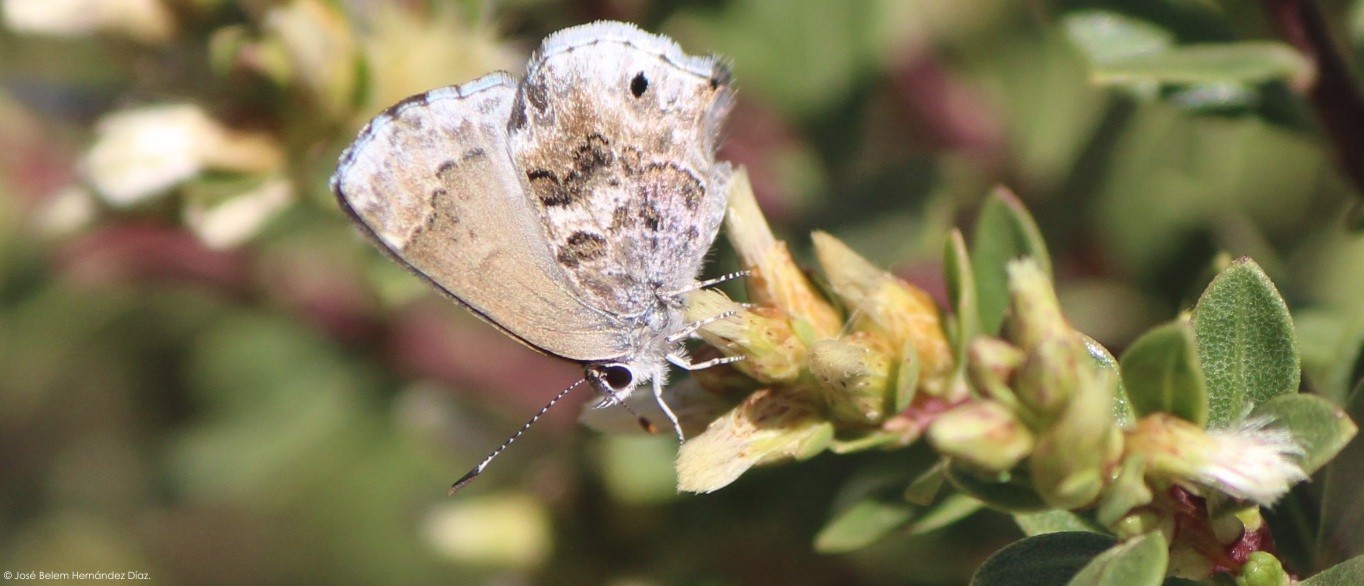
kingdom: Animalia
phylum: Arthropoda
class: Insecta
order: Lepidoptera
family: Lycaenidae
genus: Thecla
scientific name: Thecla cestri
